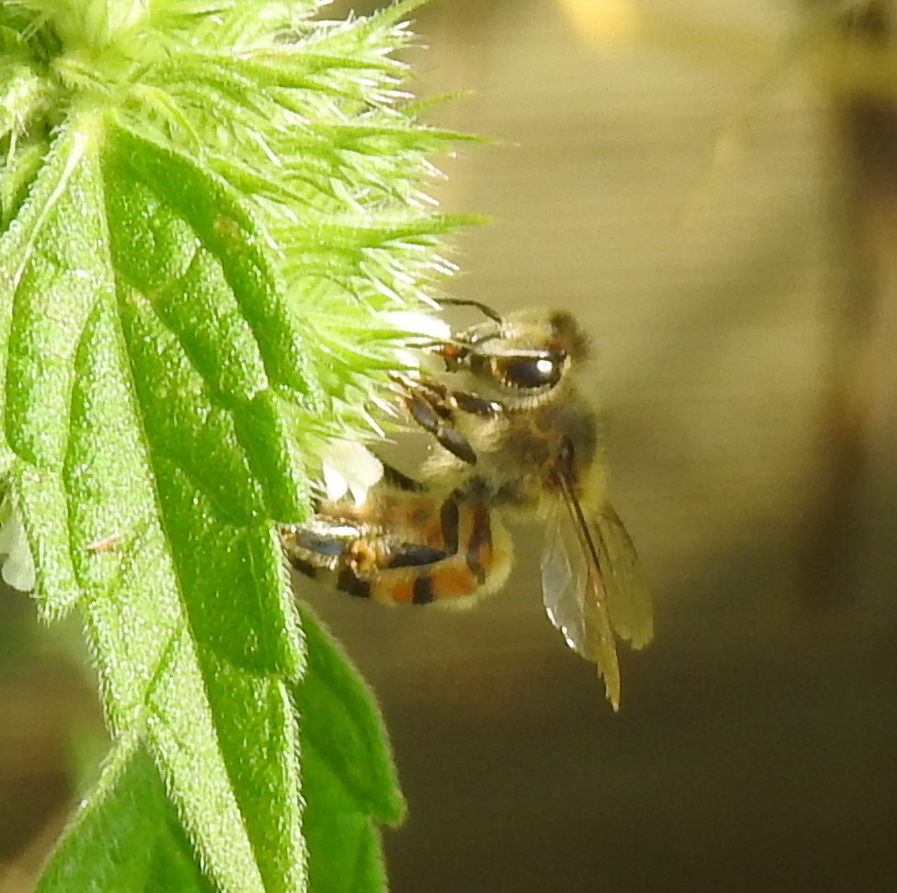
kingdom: Animalia
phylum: Arthropoda
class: Insecta
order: Hymenoptera
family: Apidae
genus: Apis
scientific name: Apis mellifera
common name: Honey bee
